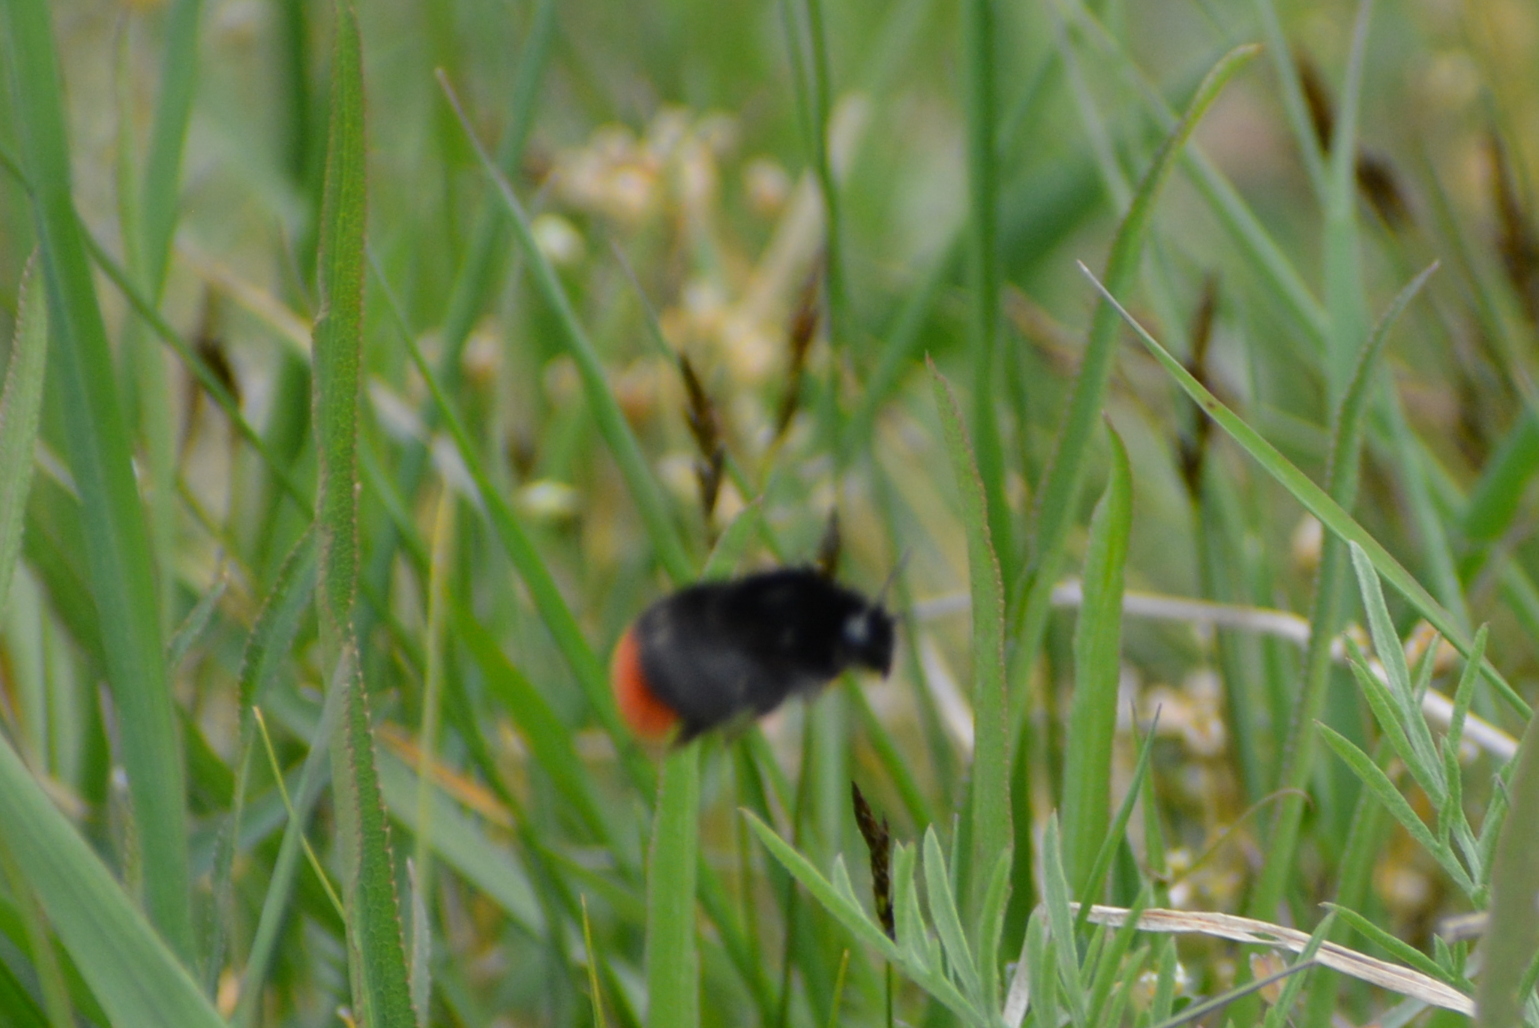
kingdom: Animalia
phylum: Arthropoda
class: Insecta
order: Hymenoptera
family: Apidae
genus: Bombus
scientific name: Bombus lapidarius
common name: Large red-tailed humble-bee
